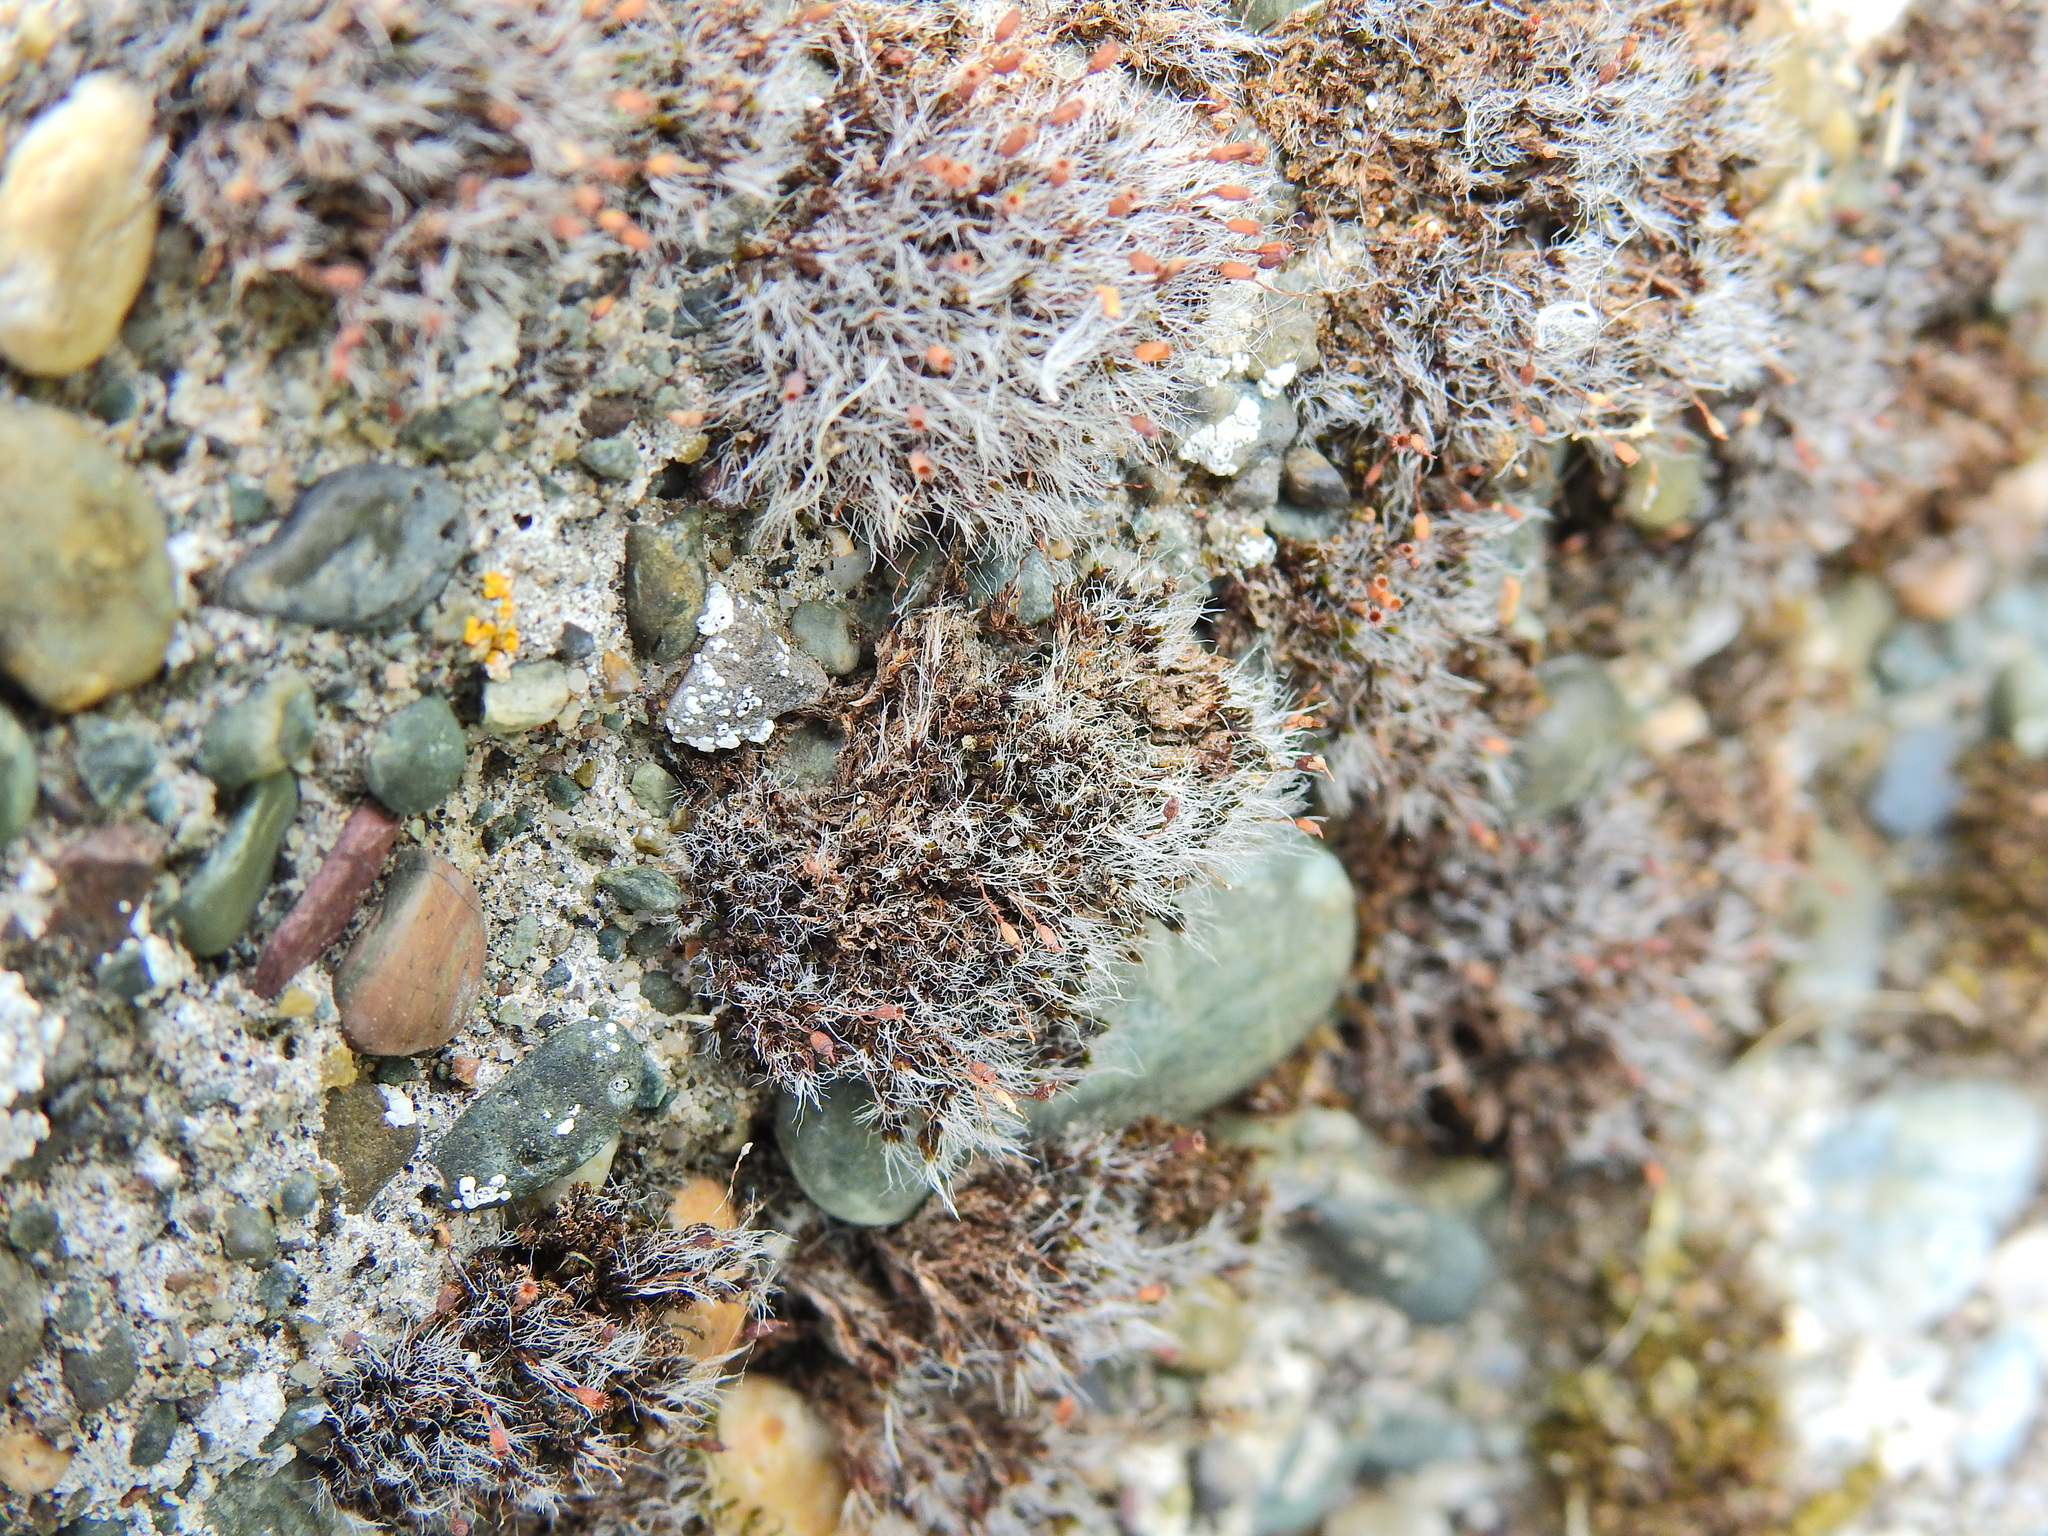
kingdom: Plantae
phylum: Bryophyta
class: Bryopsida
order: Grimmiales
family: Grimmiaceae
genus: Grimmia
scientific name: Grimmia pulvinata
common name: Grey-cushioned grimmia
